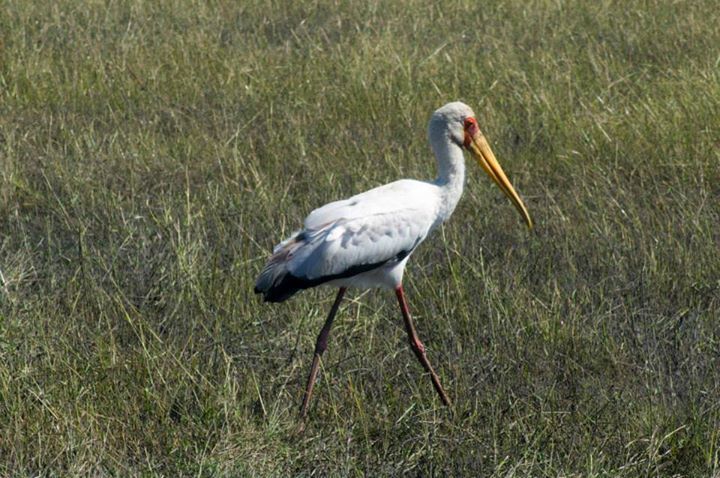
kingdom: Animalia
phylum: Chordata
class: Aves
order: Ciconiiformes
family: Ciconiidae
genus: Mycteria
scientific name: Mycteria ibis
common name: Yellow-billed stork
